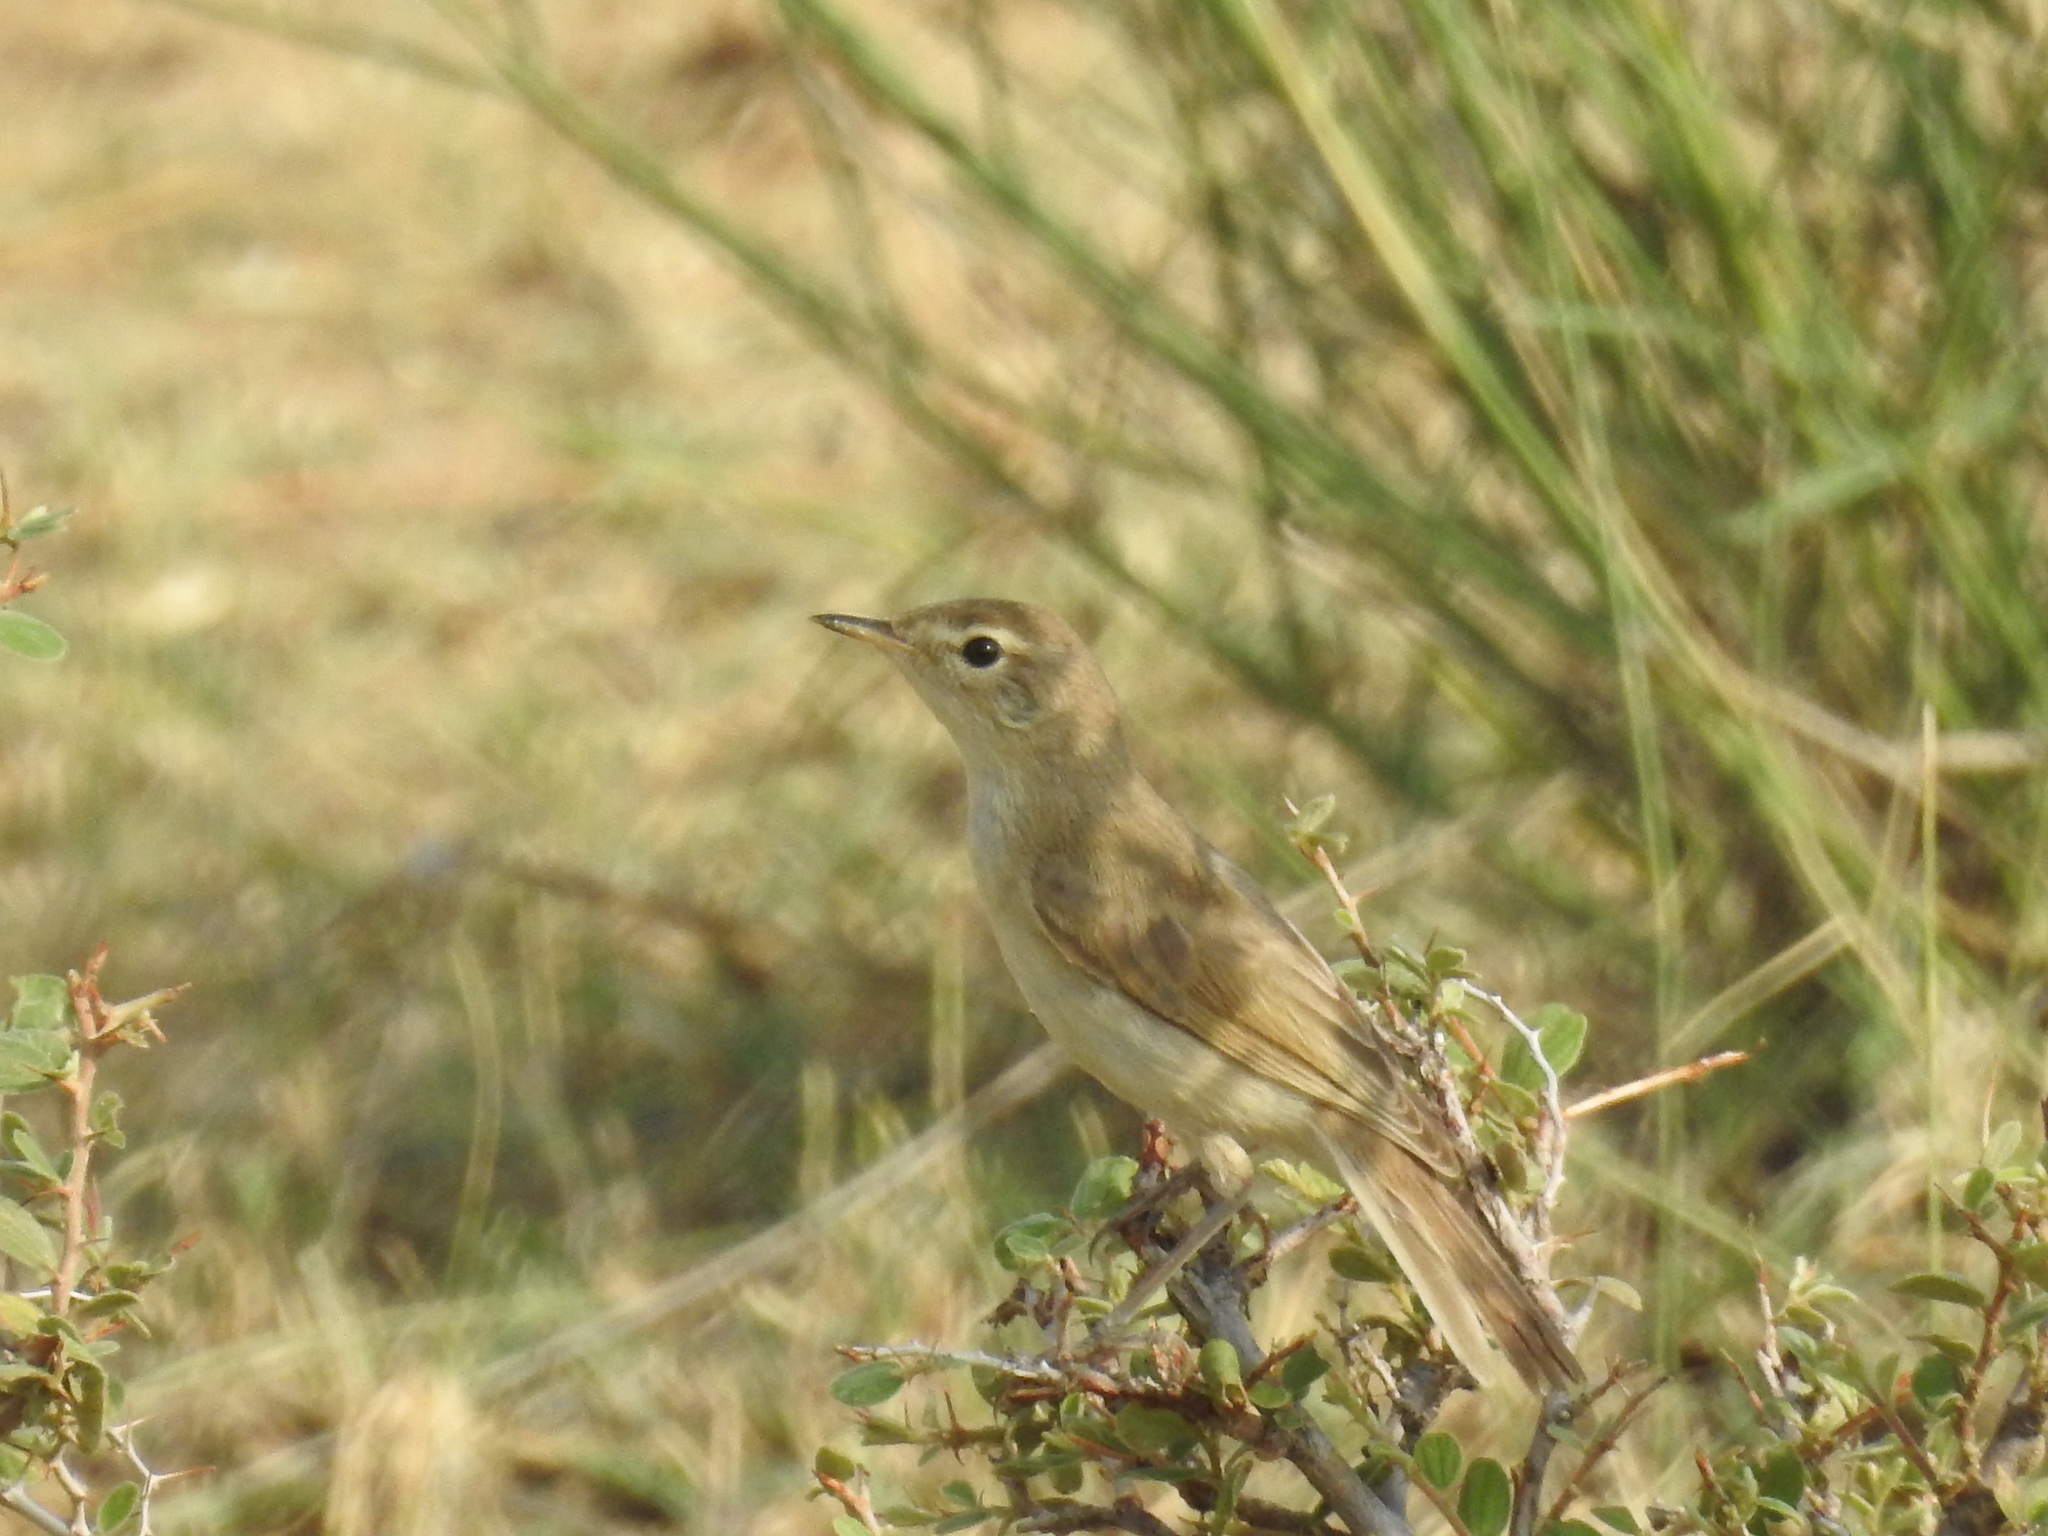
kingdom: Animalia
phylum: Chordata
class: Aves
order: Passeriformes
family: Acrocephalidae
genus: Iduna
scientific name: Iduna caligata
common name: Booted warbler
